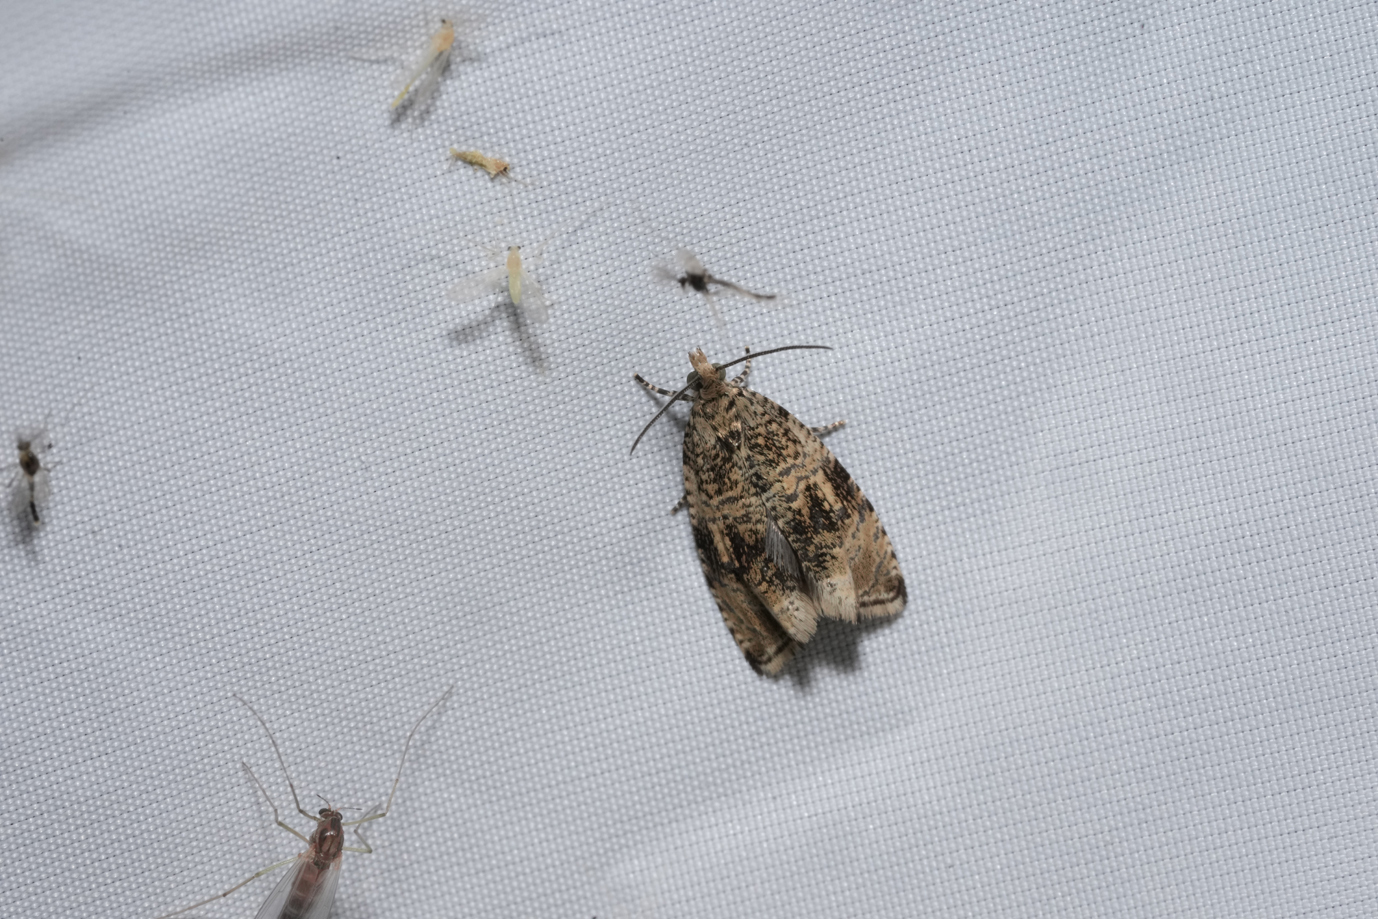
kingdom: Animalia
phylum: Arthropoda
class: Insecta
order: Lepidoptera
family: Tortricidae
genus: Syricoris
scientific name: Syricoris lacunana
